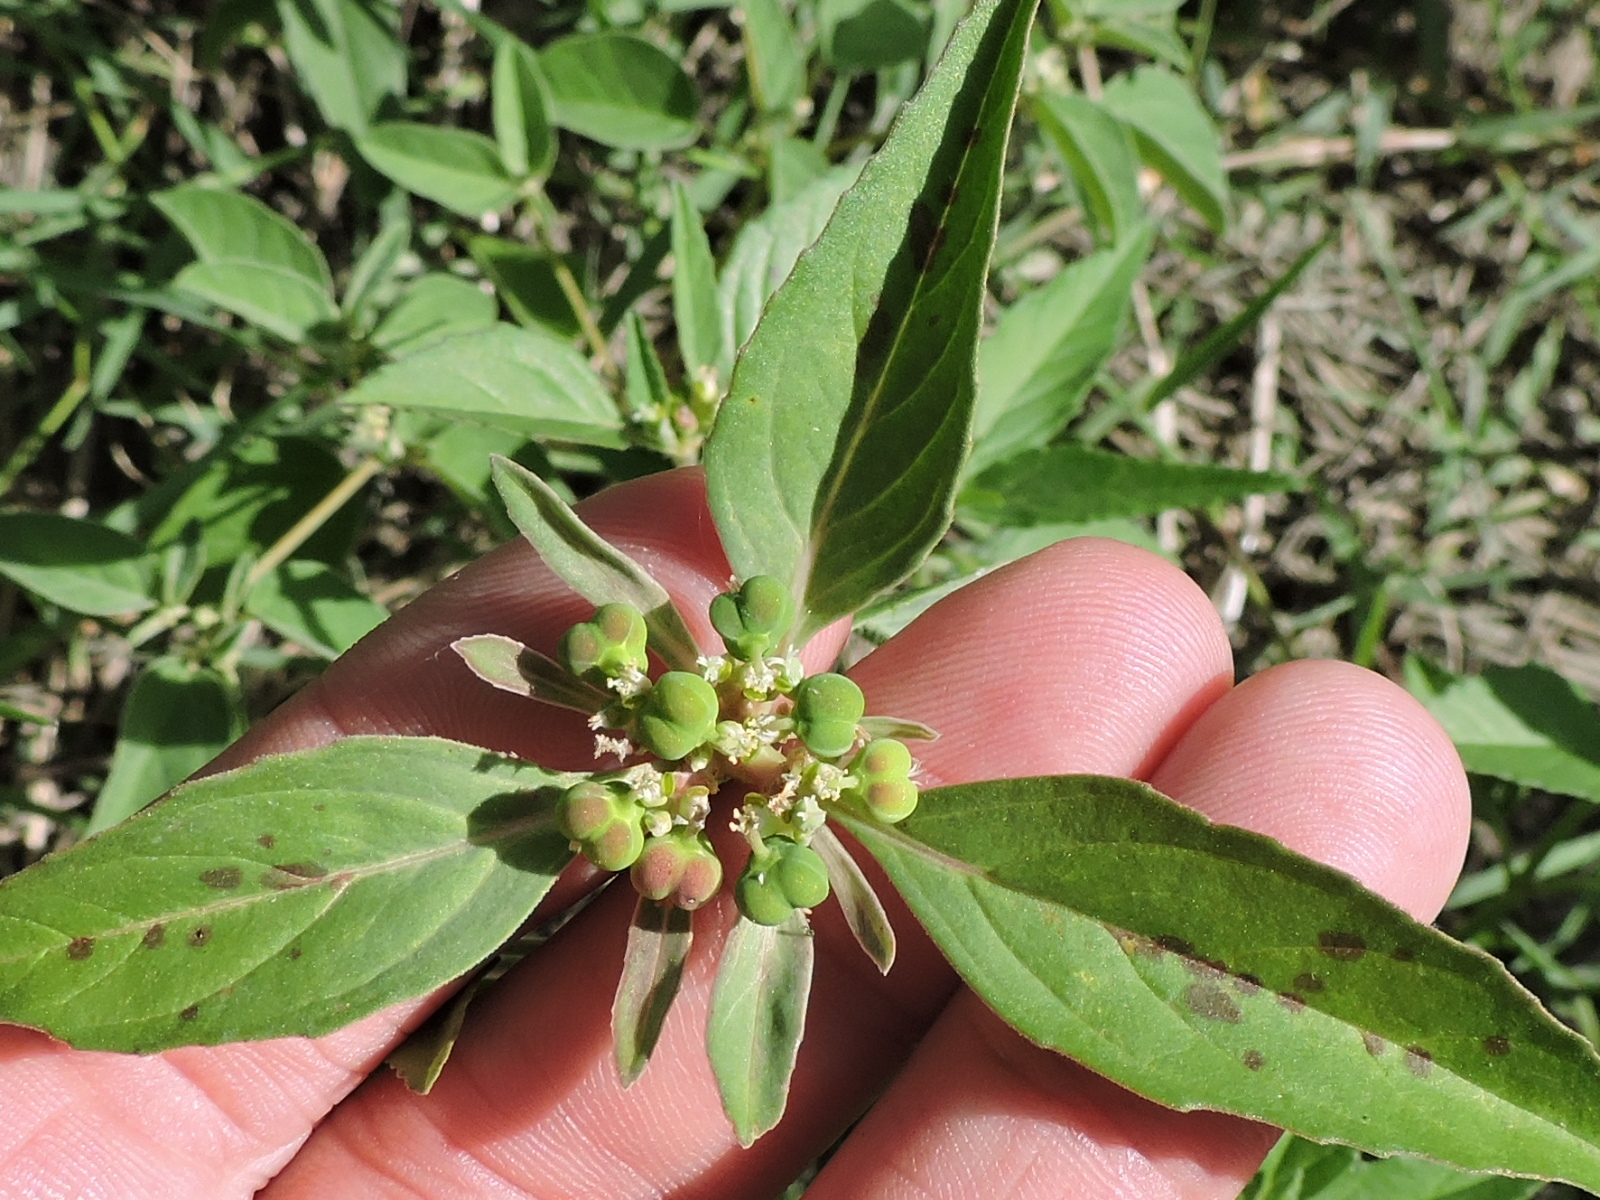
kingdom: Plantae
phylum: Tracheophyta
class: Magnoliopsida
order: Malpighiales
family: Euphorbiaceae
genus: Euphorbia
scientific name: Euphorbia dentata
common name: Dentate spurge
